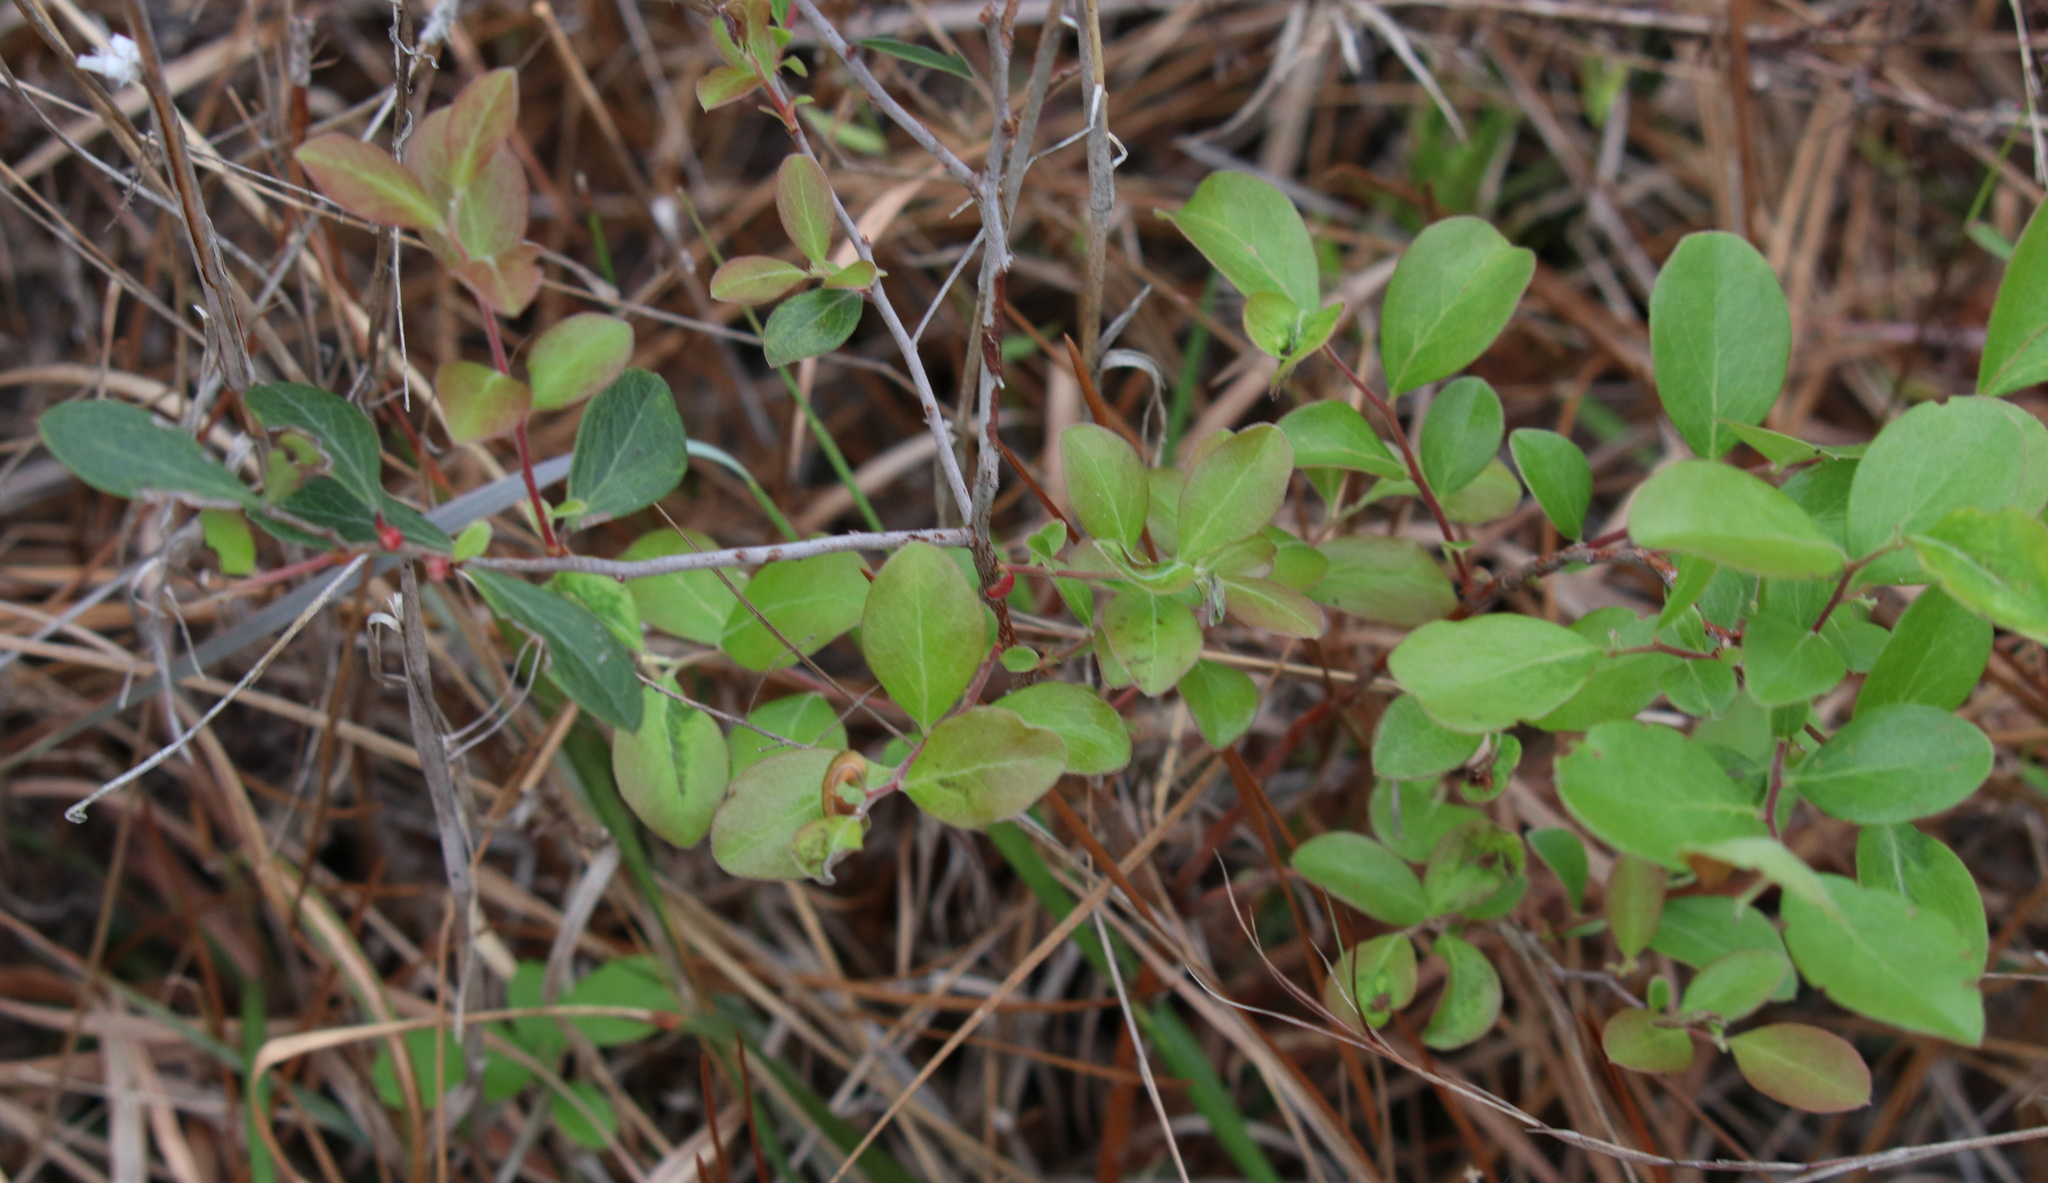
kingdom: Plantae
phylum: Tracheophyta
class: Magnoliopsida
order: Ericales
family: Ericaceae
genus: Vaccinium
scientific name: Vaccinium arboreum
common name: Farkleberry
